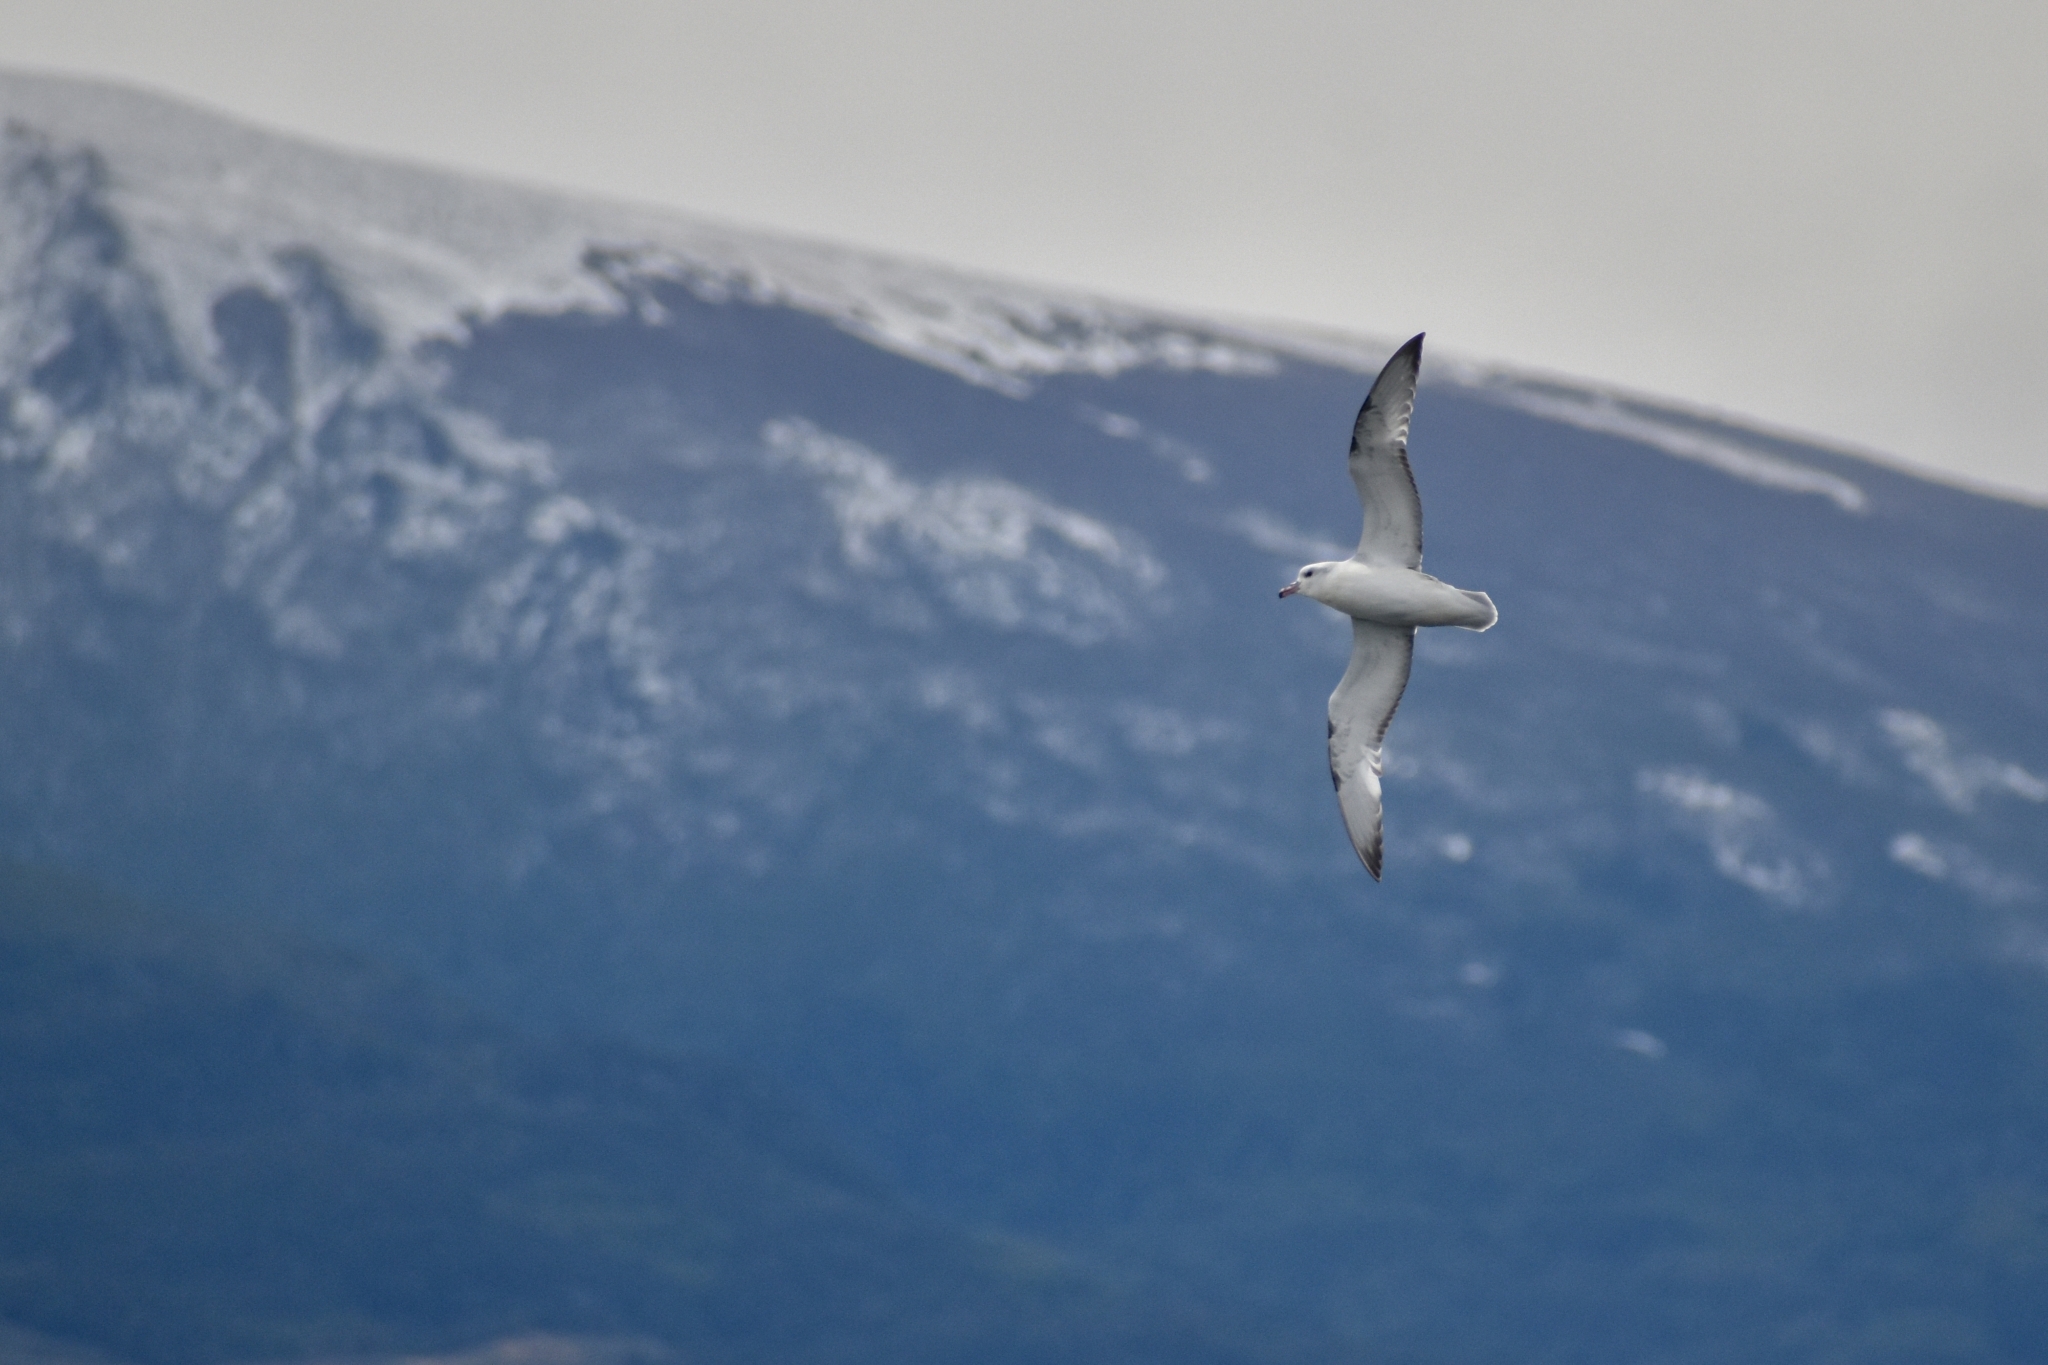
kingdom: Animalia
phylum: Chordata
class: Aves
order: Procellariiformes
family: Procellariidae
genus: Fulmarus
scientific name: Fulmarus glacialoides
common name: Southern fulmar
